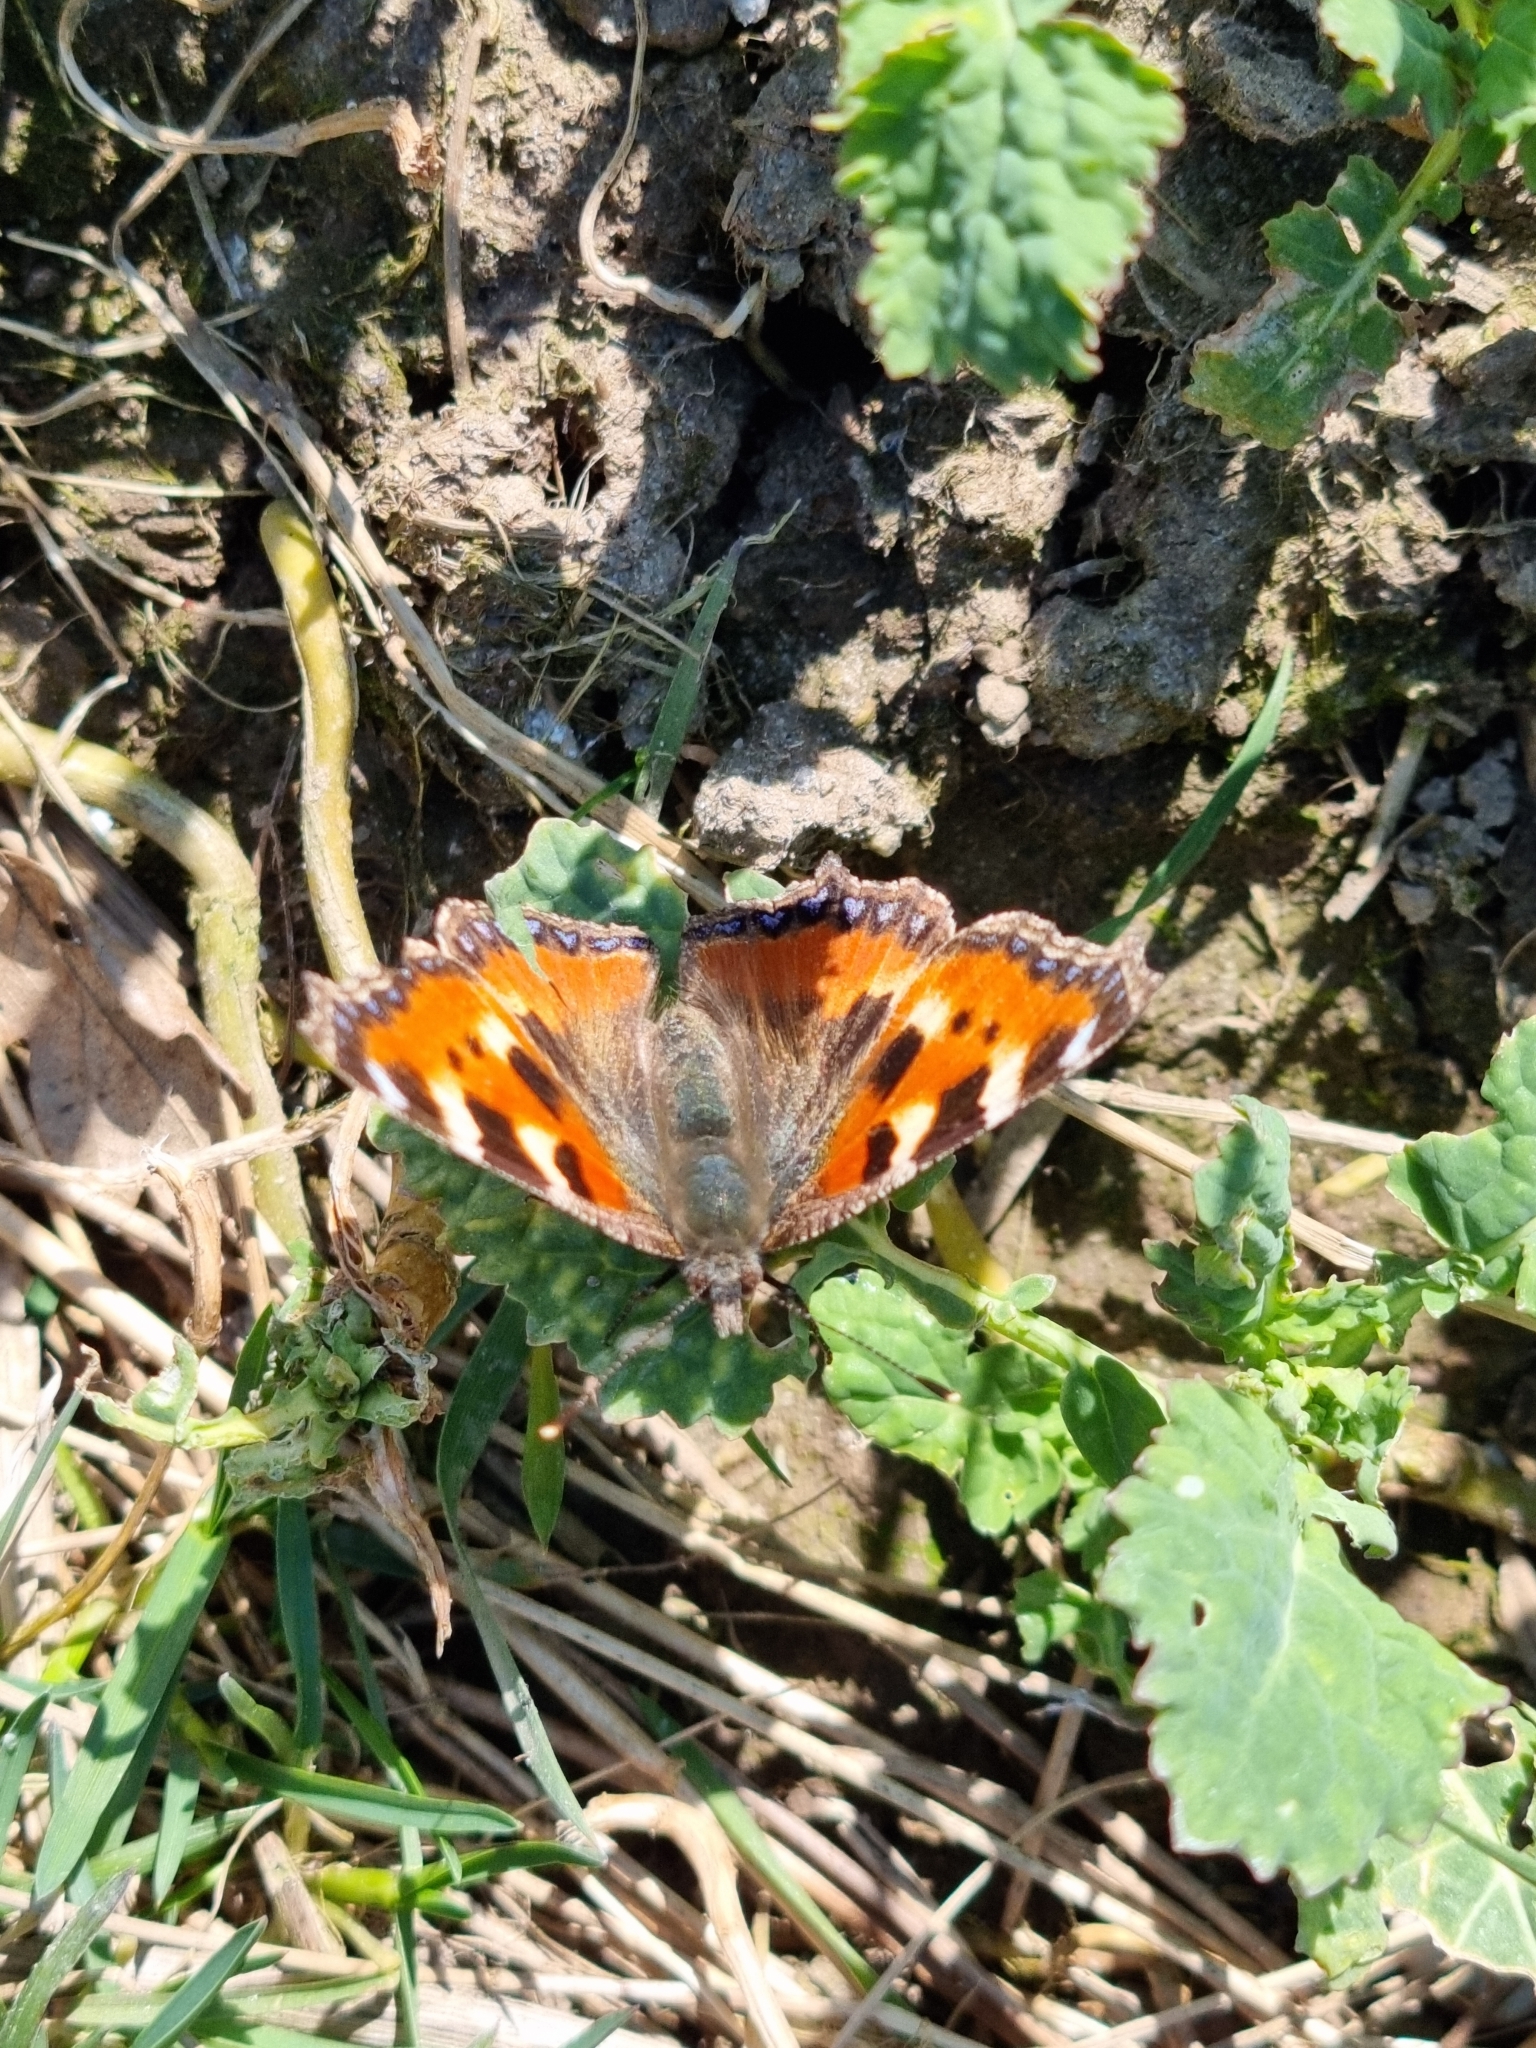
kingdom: Animalia
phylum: Arthropoda
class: Insecta
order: Lepidoptera
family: Nymphalidae
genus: Aglais
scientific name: Aglais urticae
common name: Small tortoiseshell
